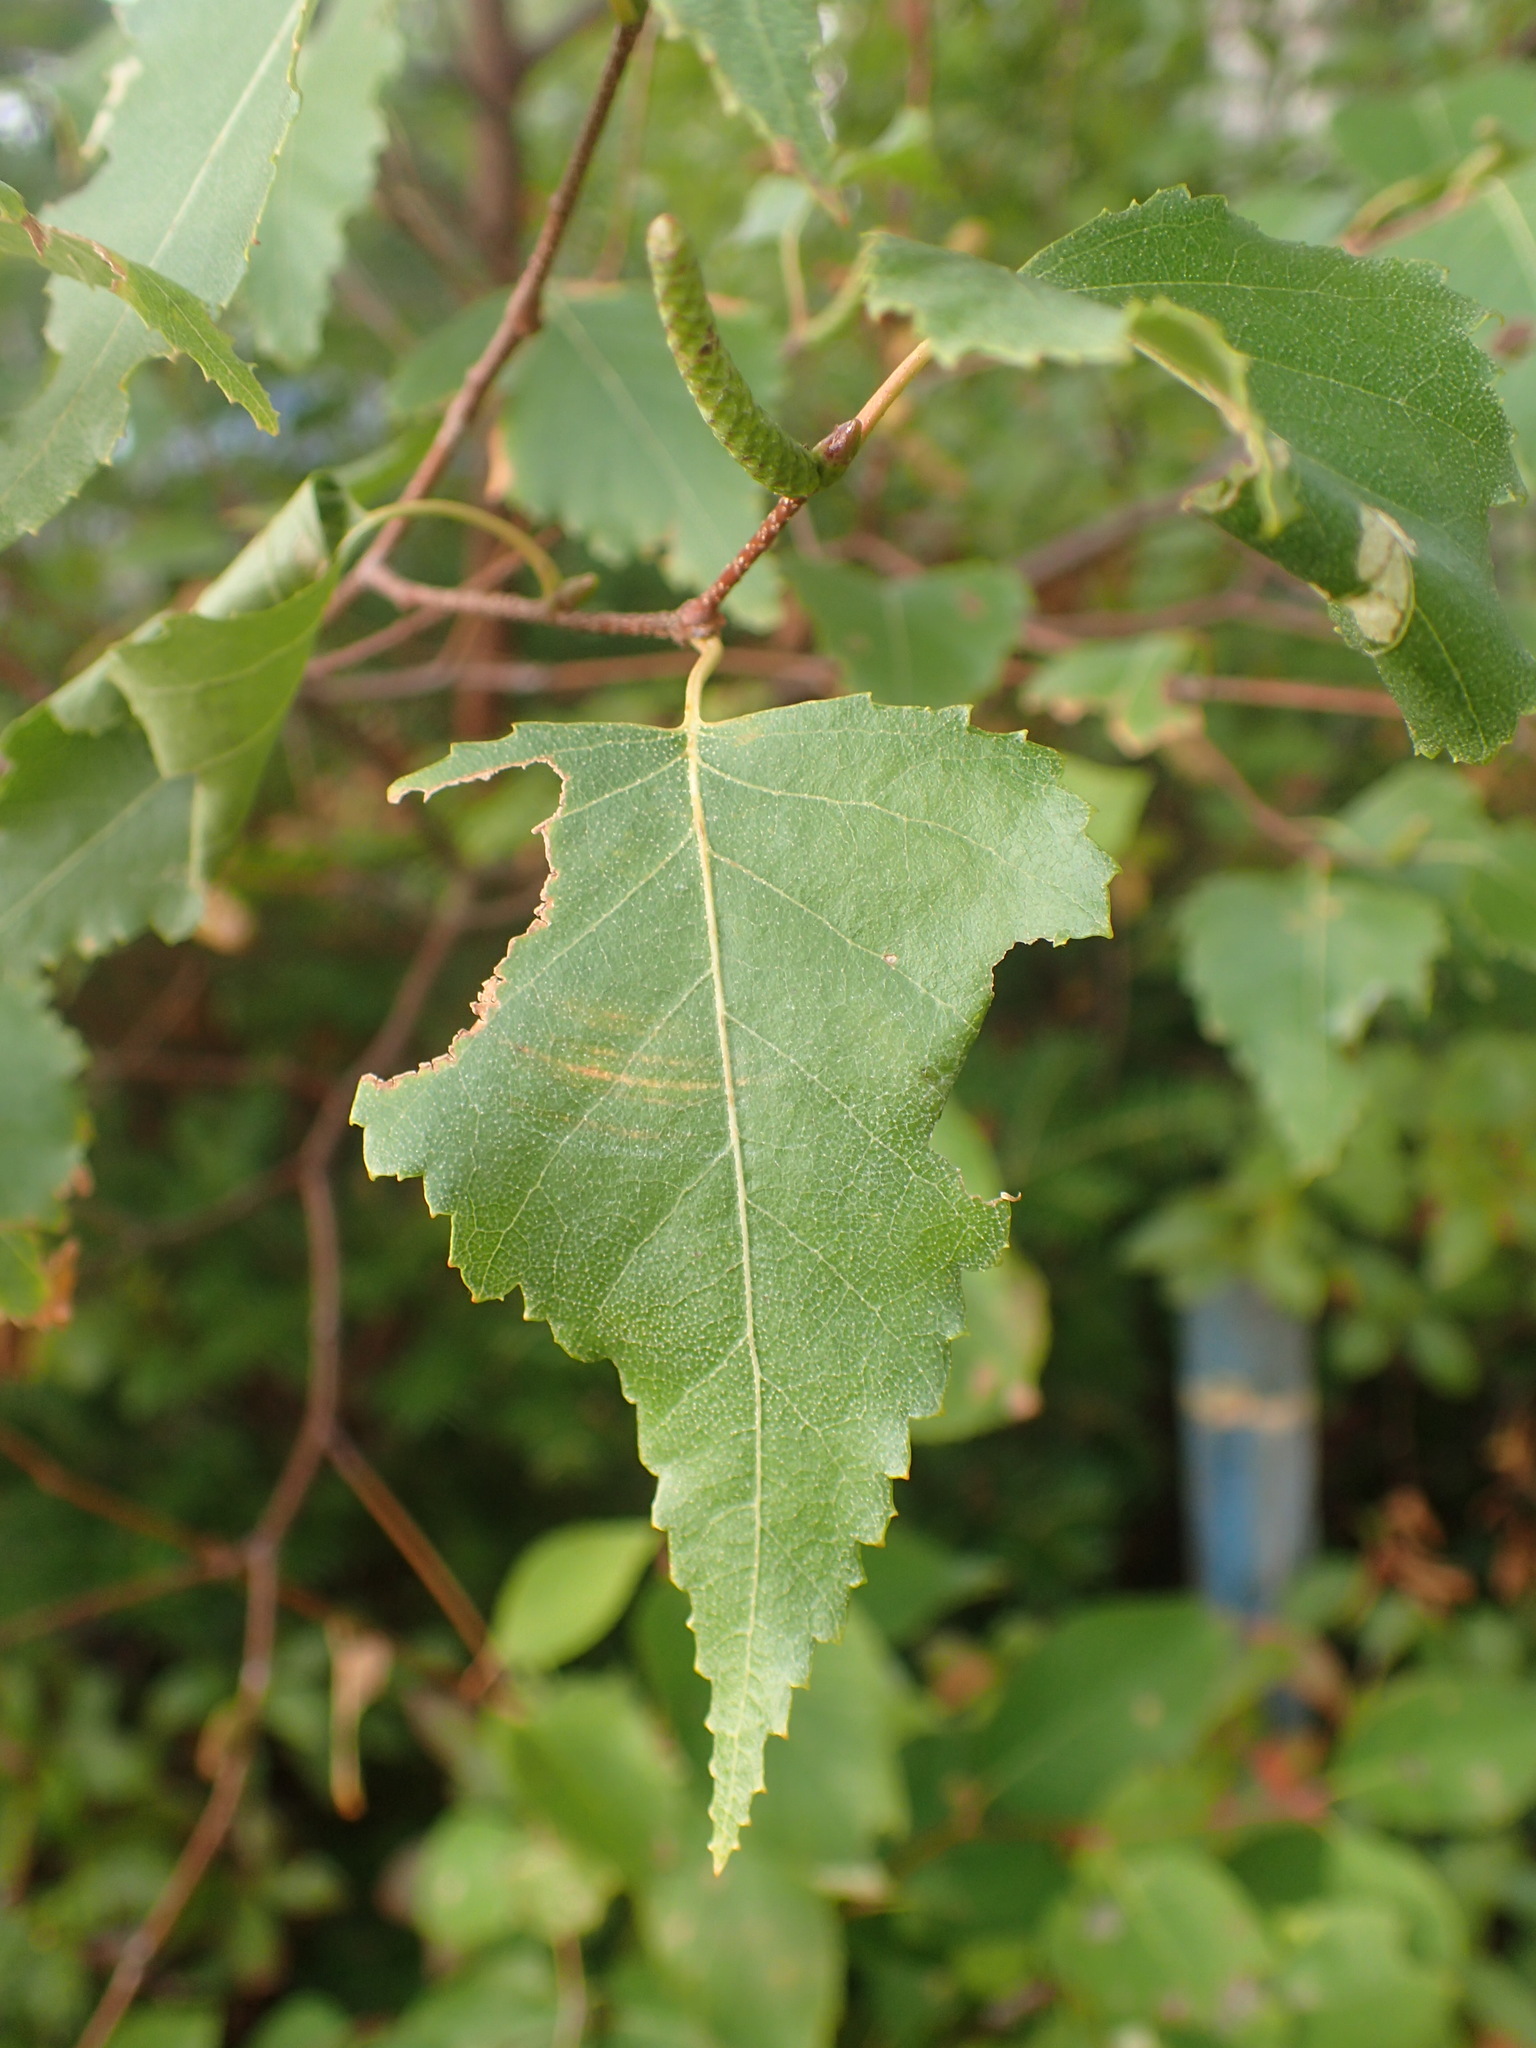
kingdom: Plantae
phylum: Tracheophyta
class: Magnoliopsida
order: Fagales
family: Betulaceae
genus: Betula
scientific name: Betula populifolia
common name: Fire birch
